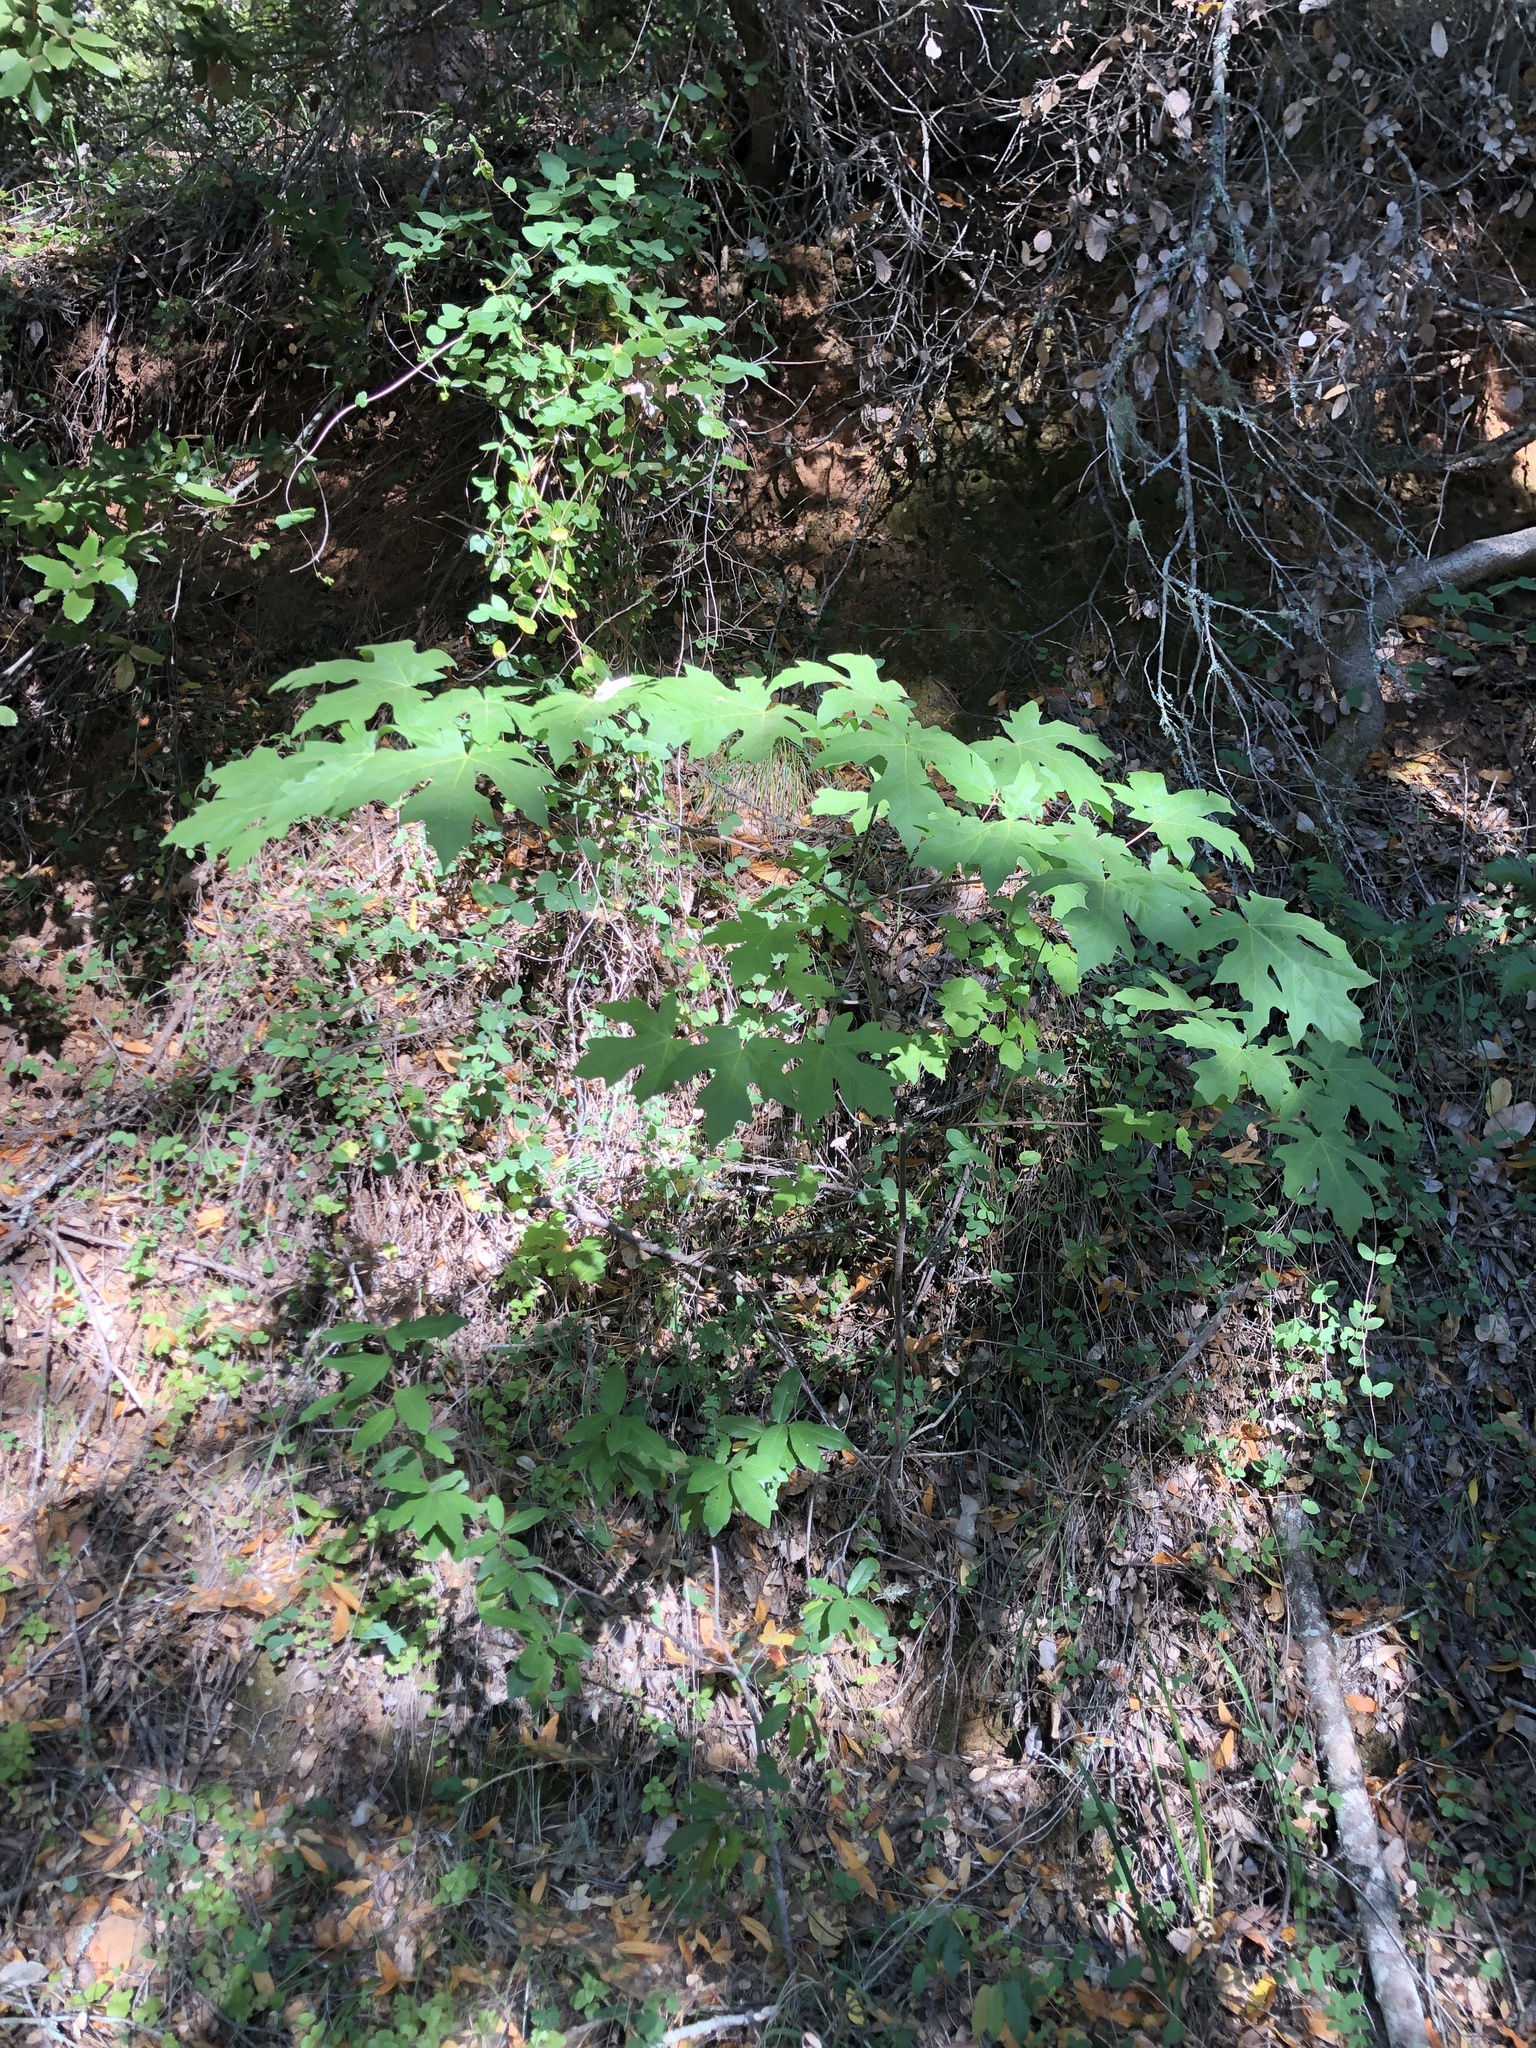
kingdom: Plantae
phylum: Tracheophyta
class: Magnoliopsida
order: Sapindales
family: Sapindaceae
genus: Acer
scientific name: Acer macrophyllum
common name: Oregon maple
